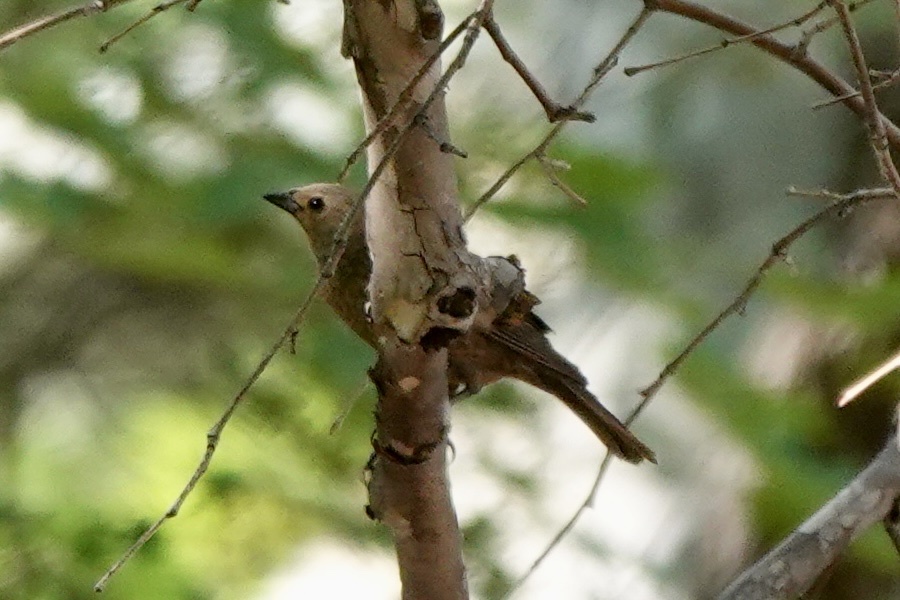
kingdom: Animalia
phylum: Chordata
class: Aves
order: Passeriformes
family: Icteridae
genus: Molothrus
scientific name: Molothrus ater
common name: Brown-headed cowbird
